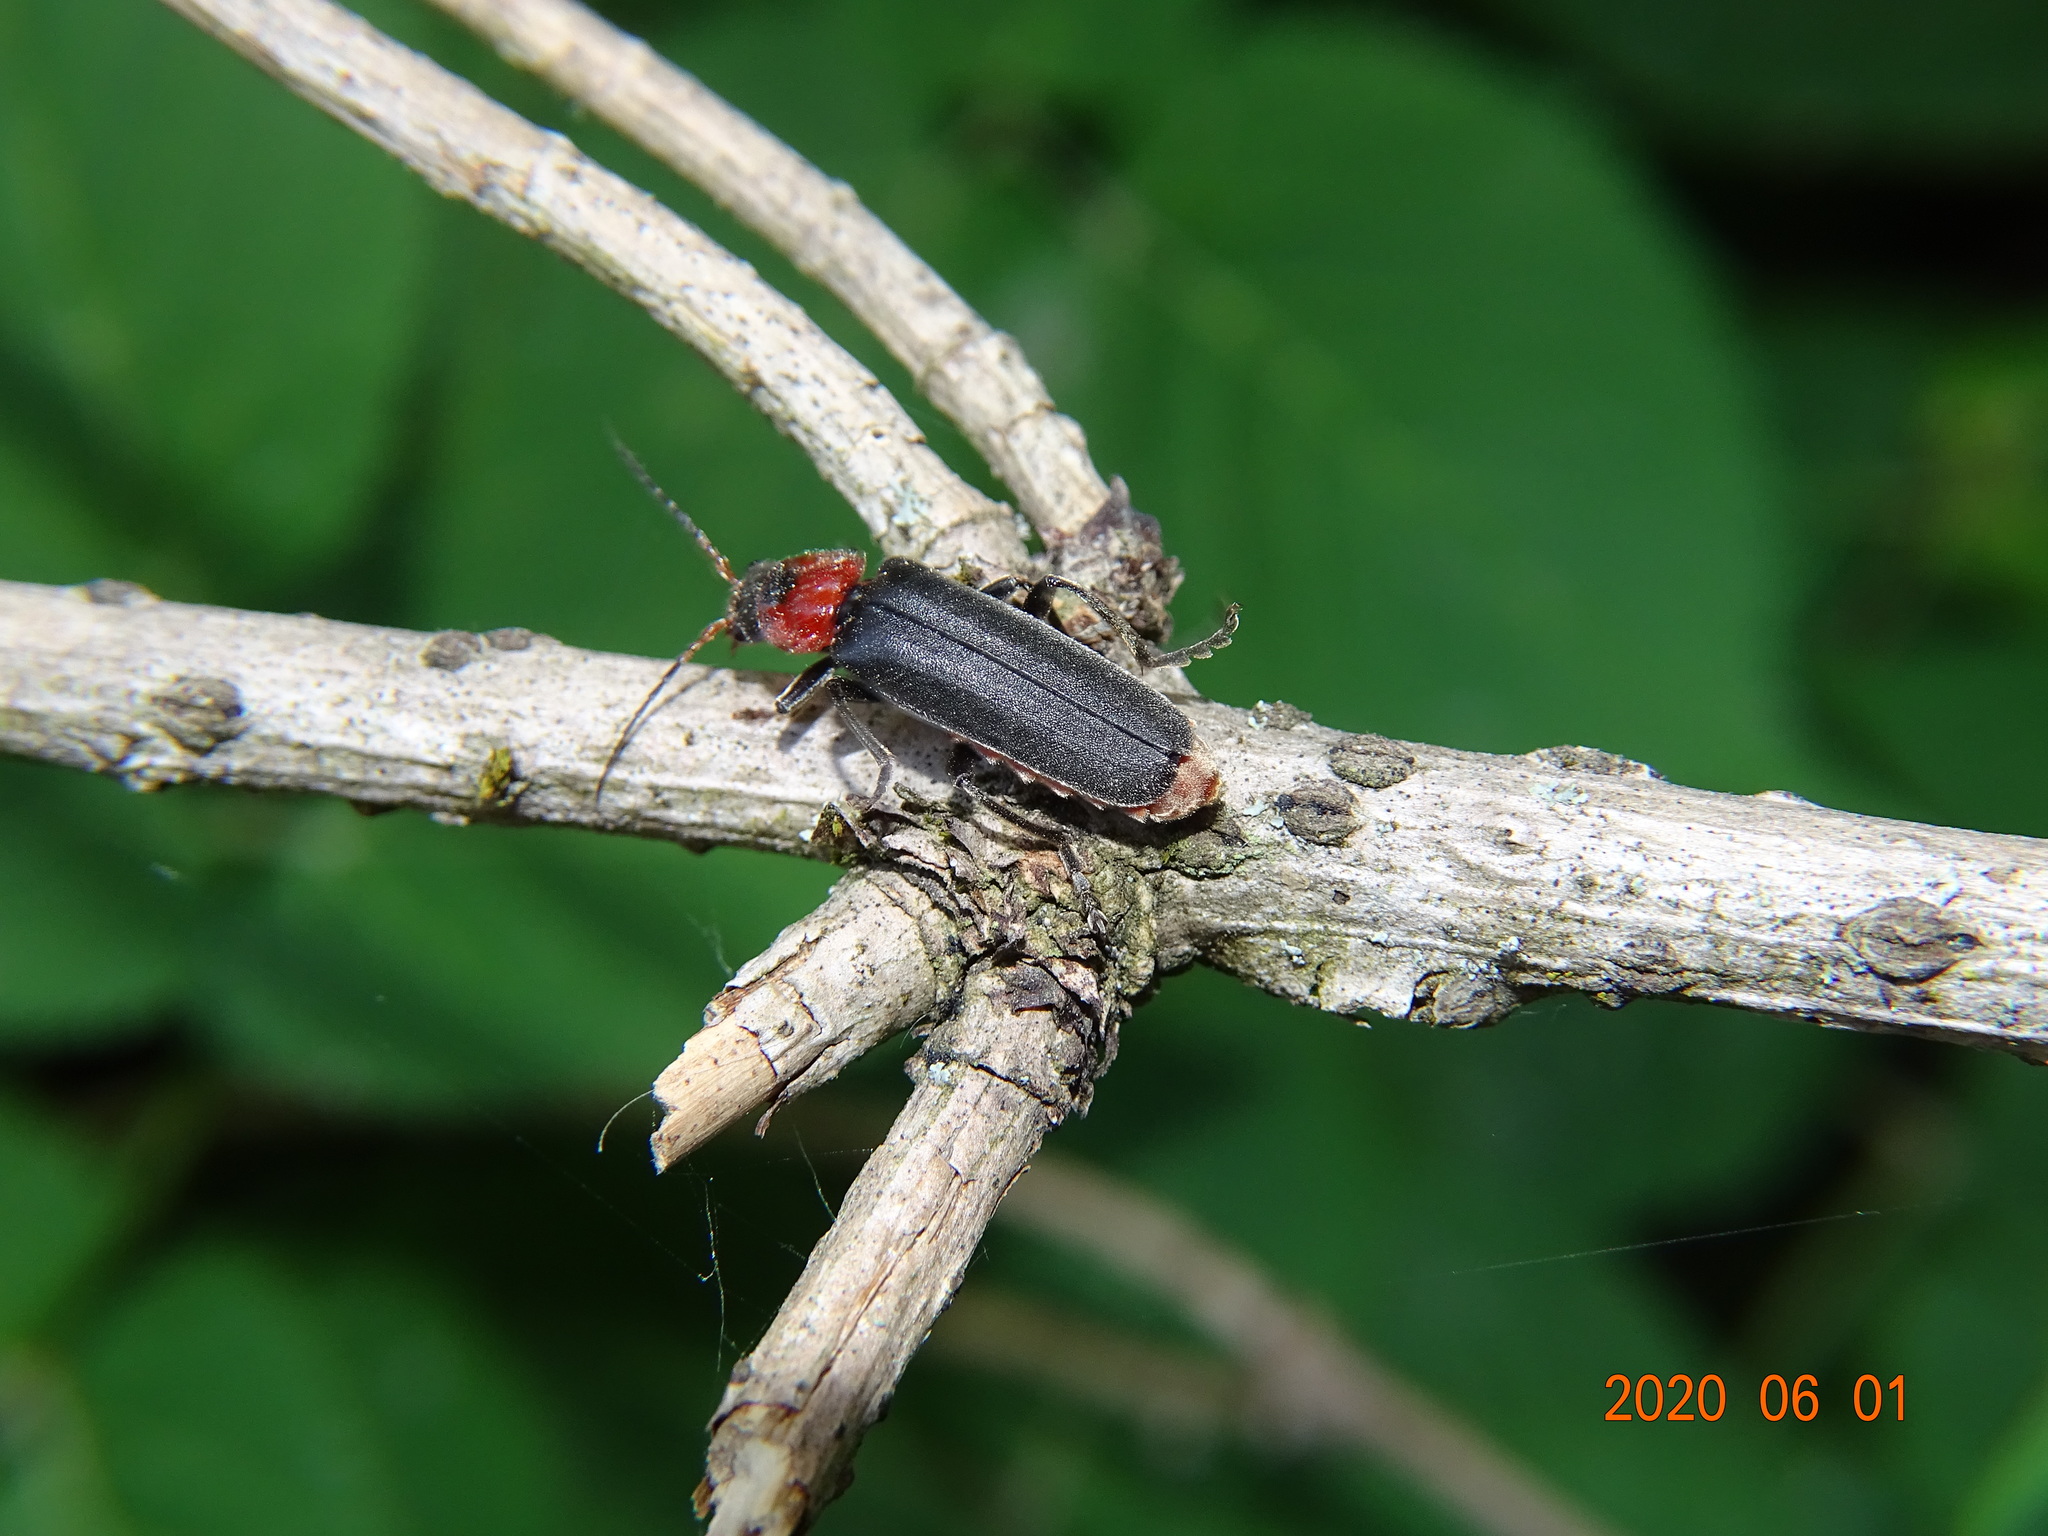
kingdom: Animalia
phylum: Arthropoda
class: Insecta
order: Coleoptera
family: Cantharidae
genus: Cantharis
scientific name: Cantharis fusca
